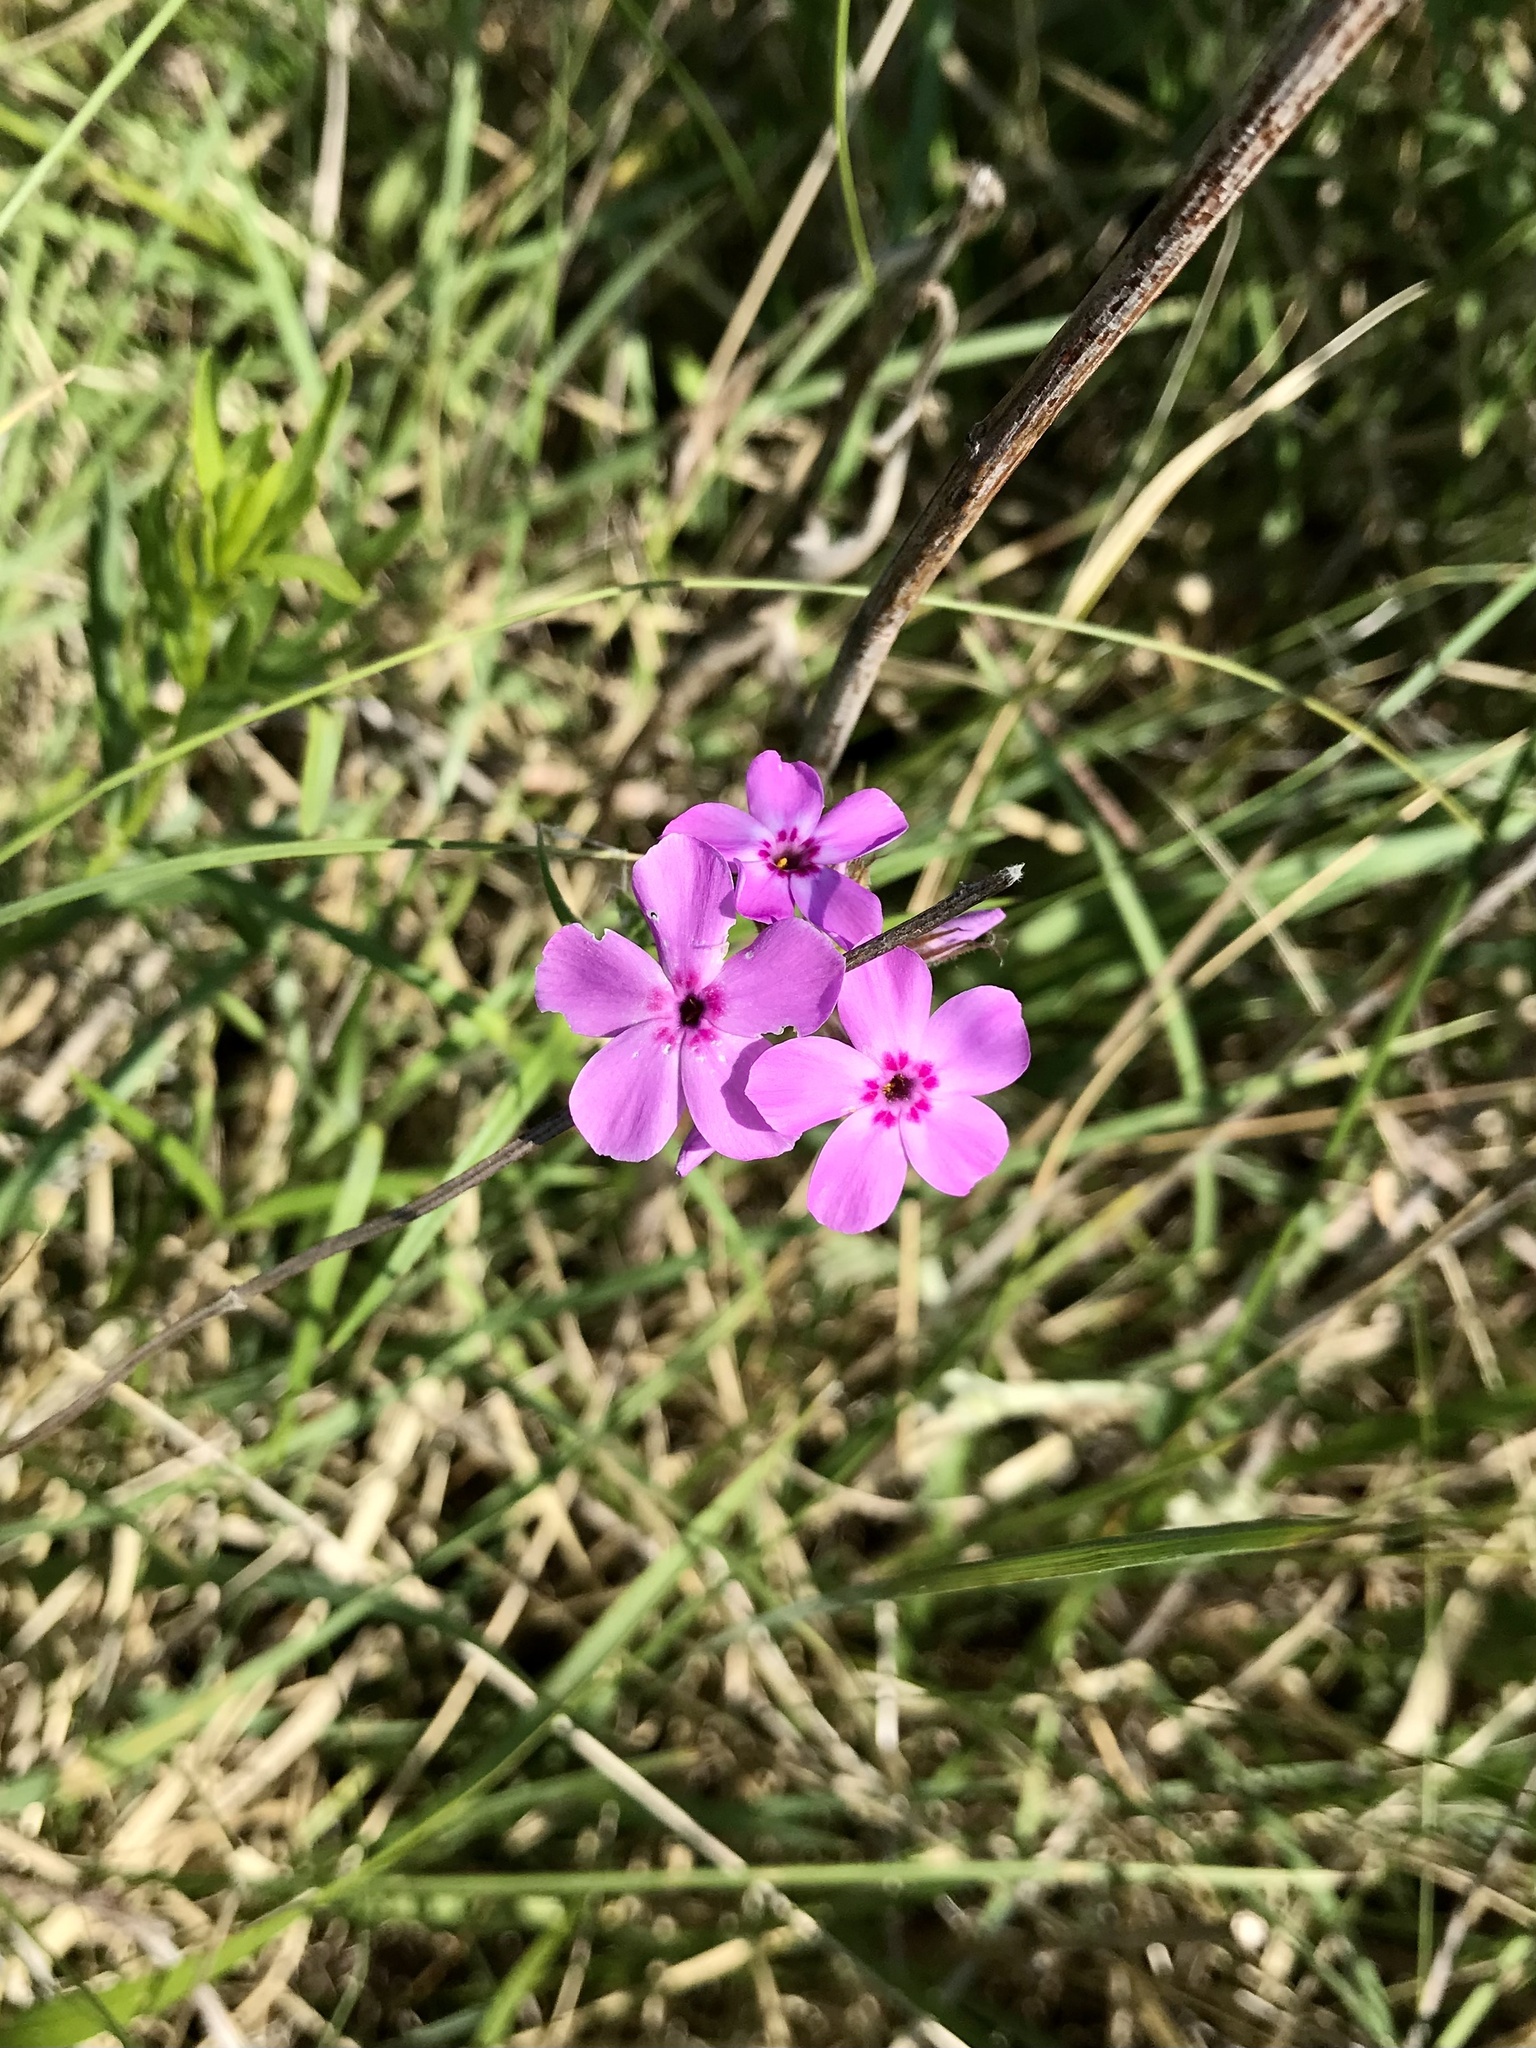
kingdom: Plantae
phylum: Tracheophyta
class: Magnoliopsida
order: Ericales
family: Polemoniaceae
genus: Phlox
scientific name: Phlox pilosa
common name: Prairie phlox
